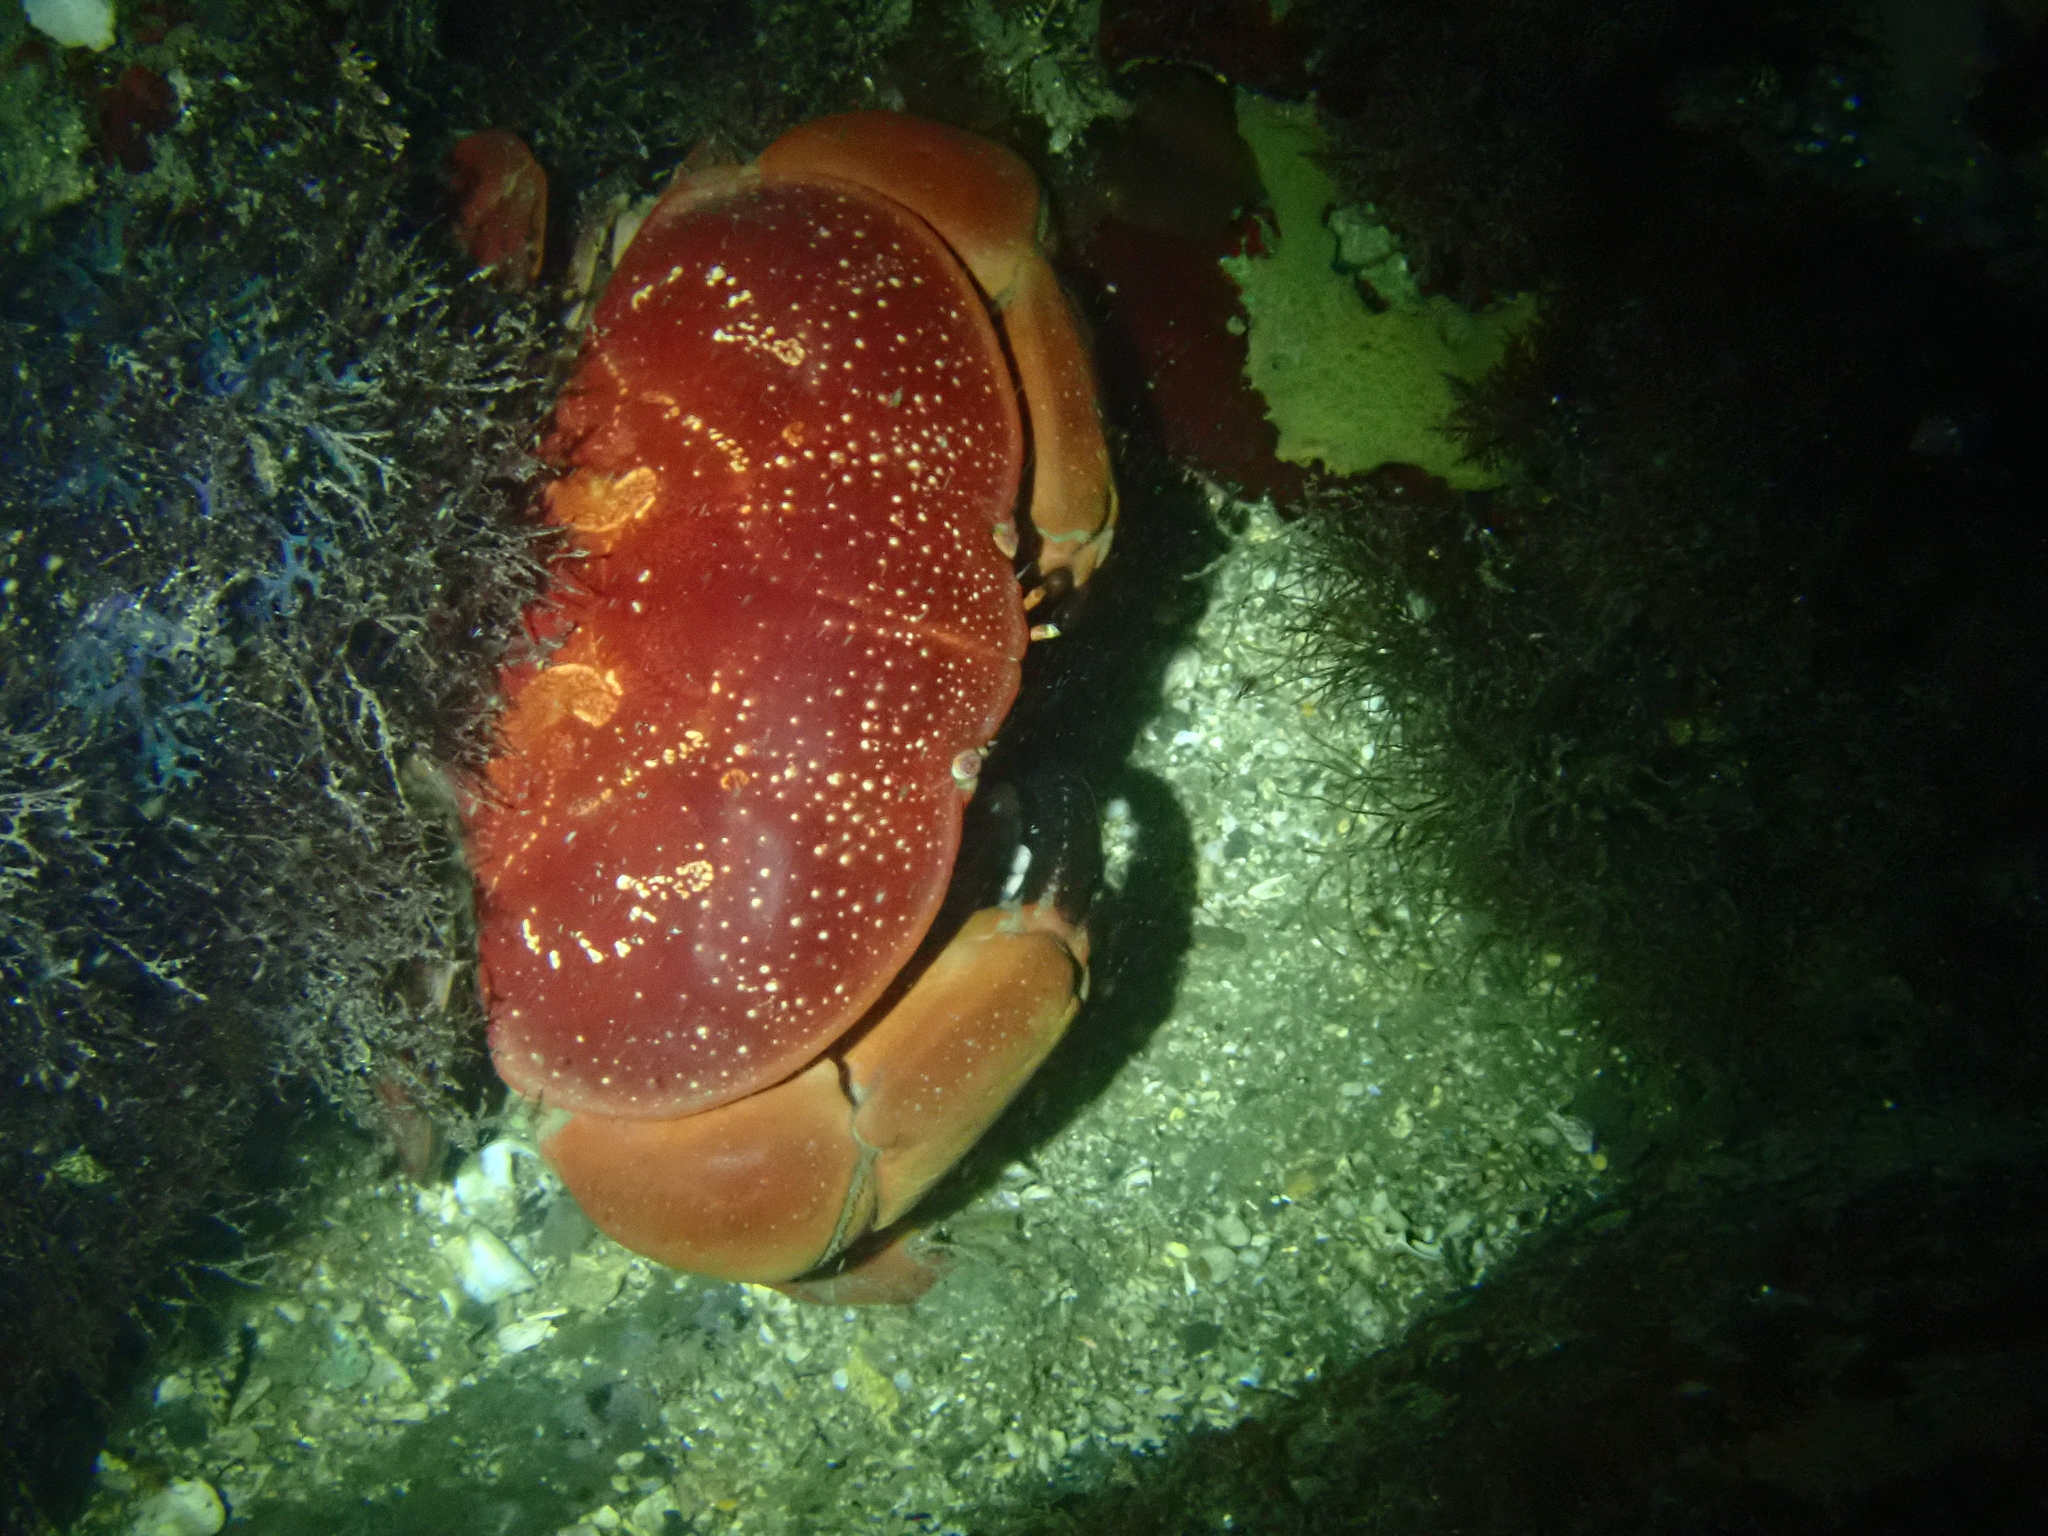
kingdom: Animalia
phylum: Arthropoda
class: Malacostraca
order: Decapoda
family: Xanthidae
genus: Atergatis
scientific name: Atergatis integerrimus
